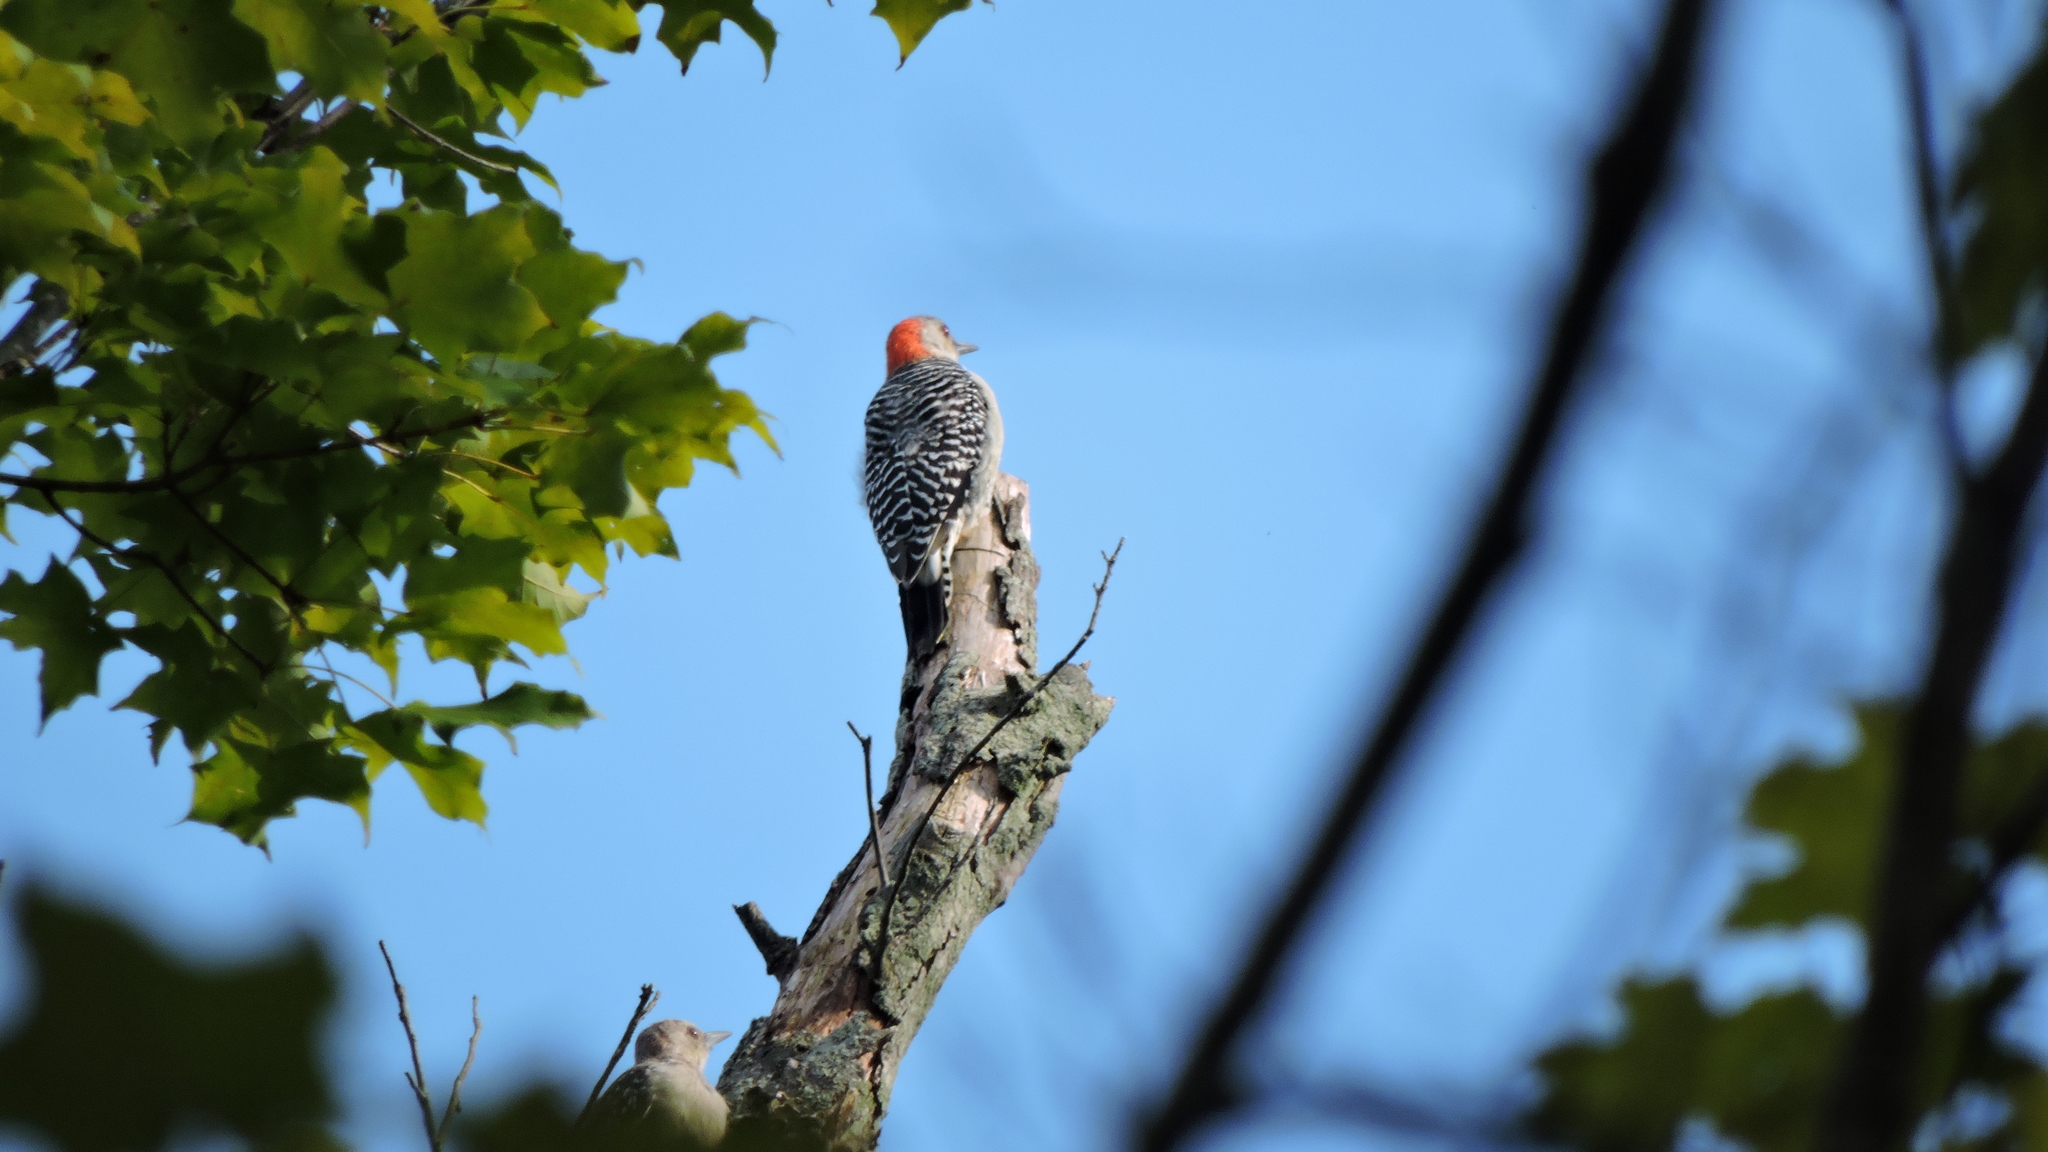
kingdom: Animalia
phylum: Chordata
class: Aves
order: Piciformes
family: Picidae
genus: Melanerpes
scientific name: Melanerpes carolinus
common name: Red-bellied woodpecker
